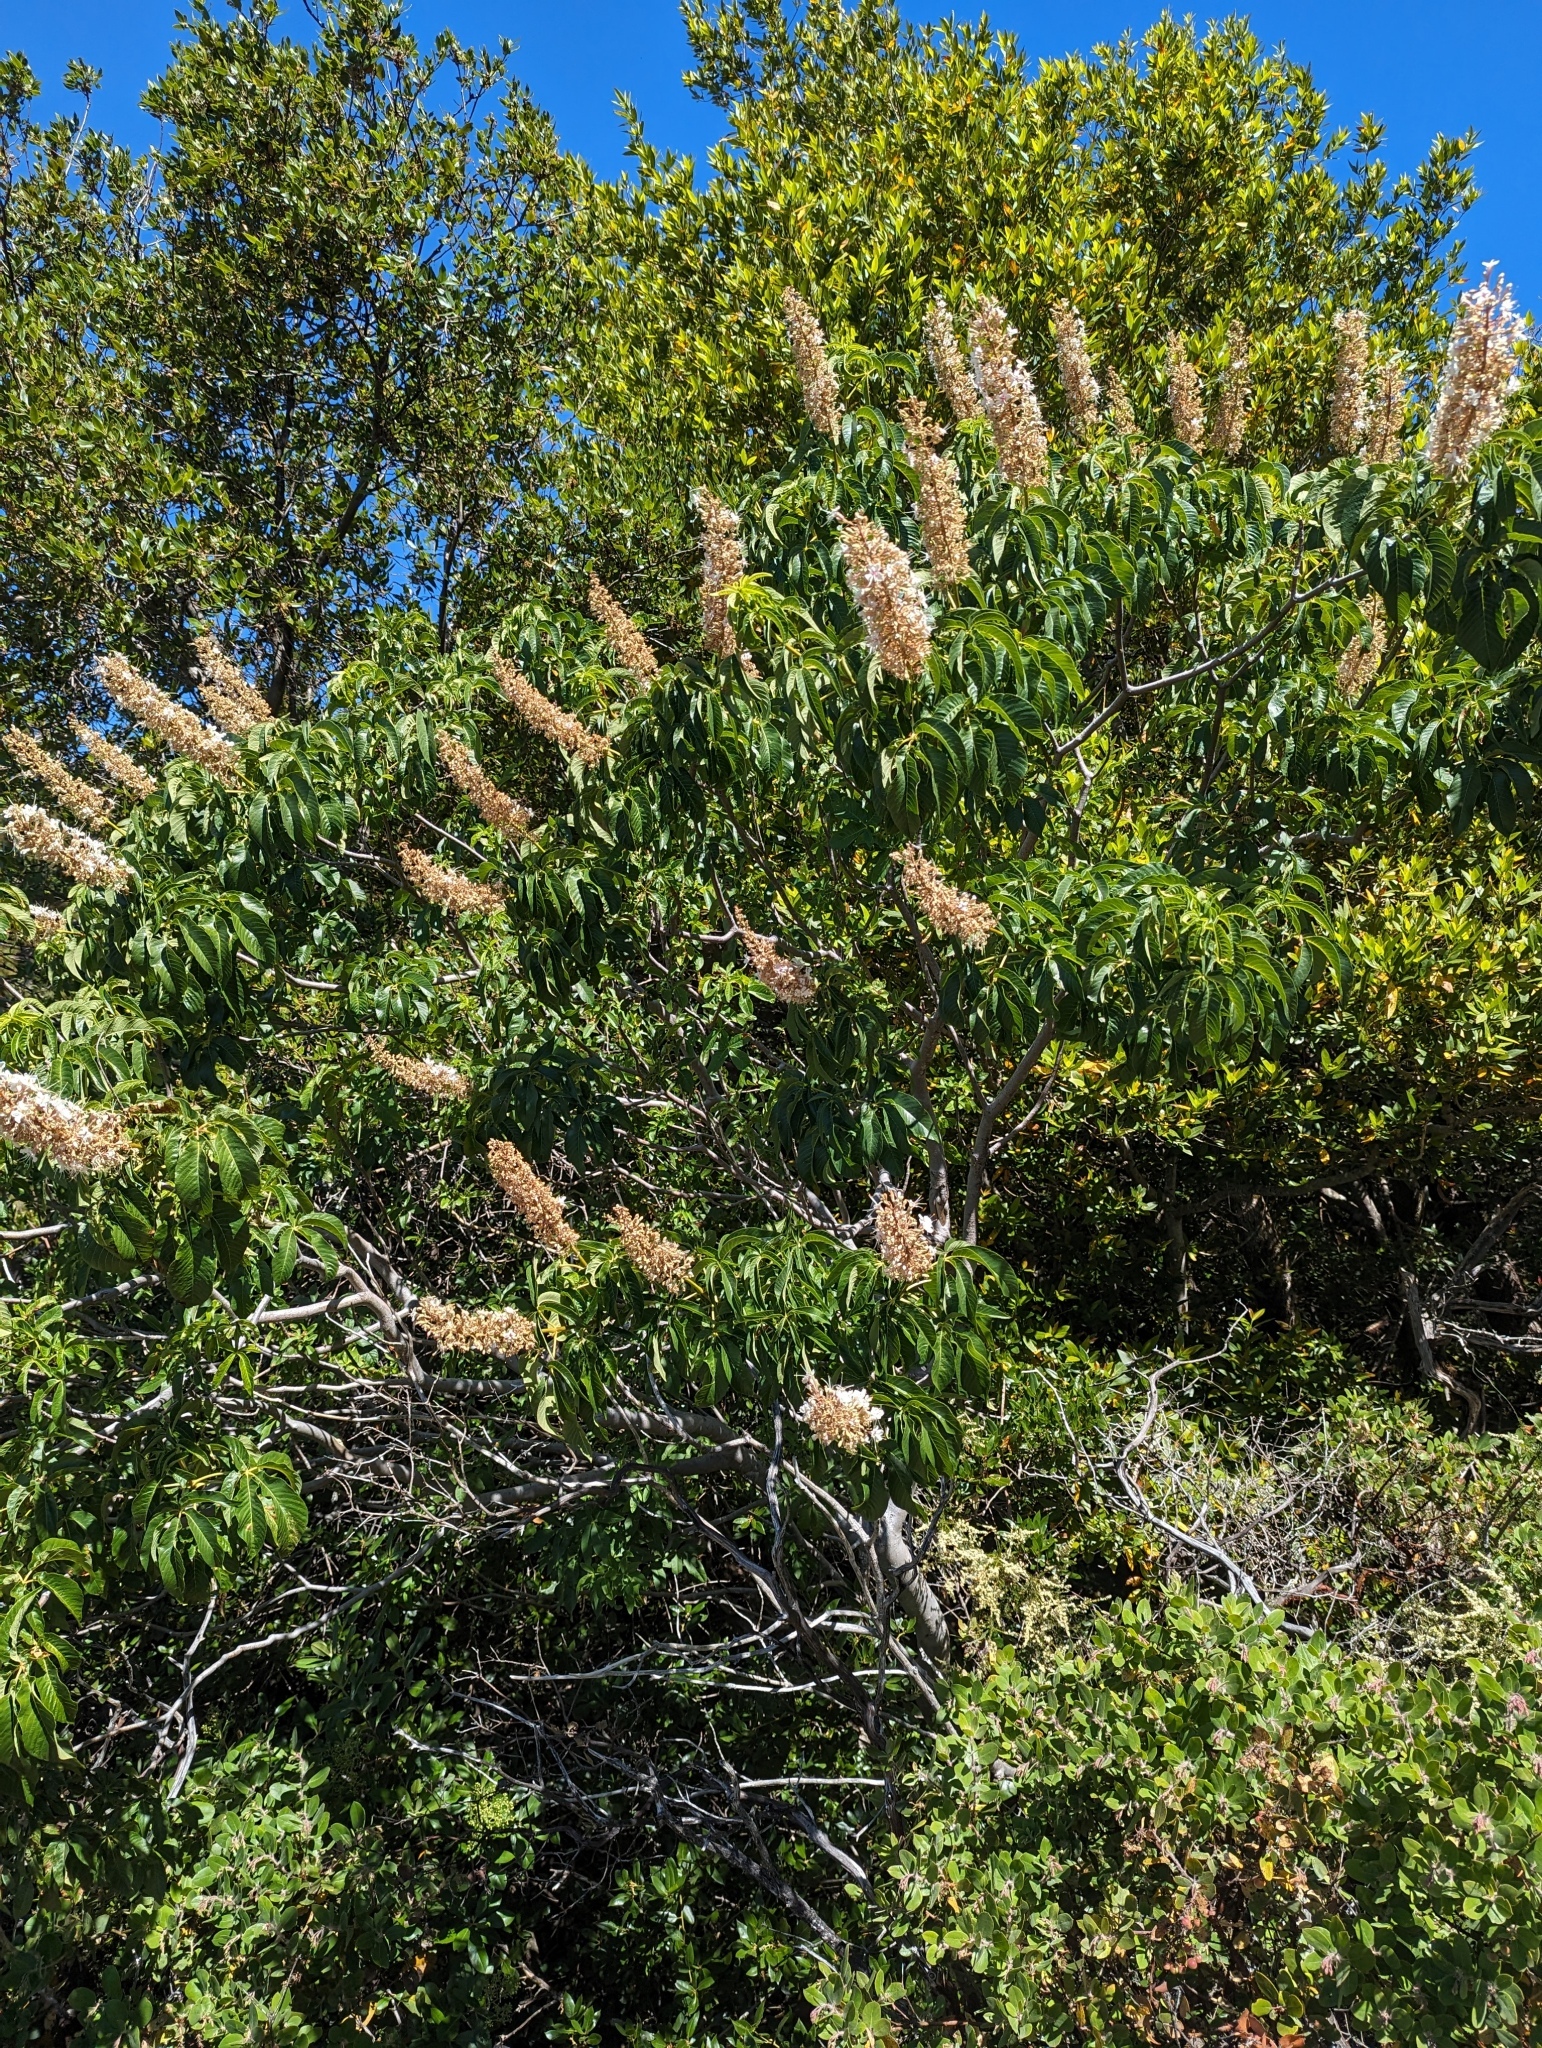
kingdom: Plantae
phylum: Tracheophyta
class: Magnoliopsida
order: Sapindales
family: Sapindaceae
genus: Aesculus
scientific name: Aesculus californica
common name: California buckeye
